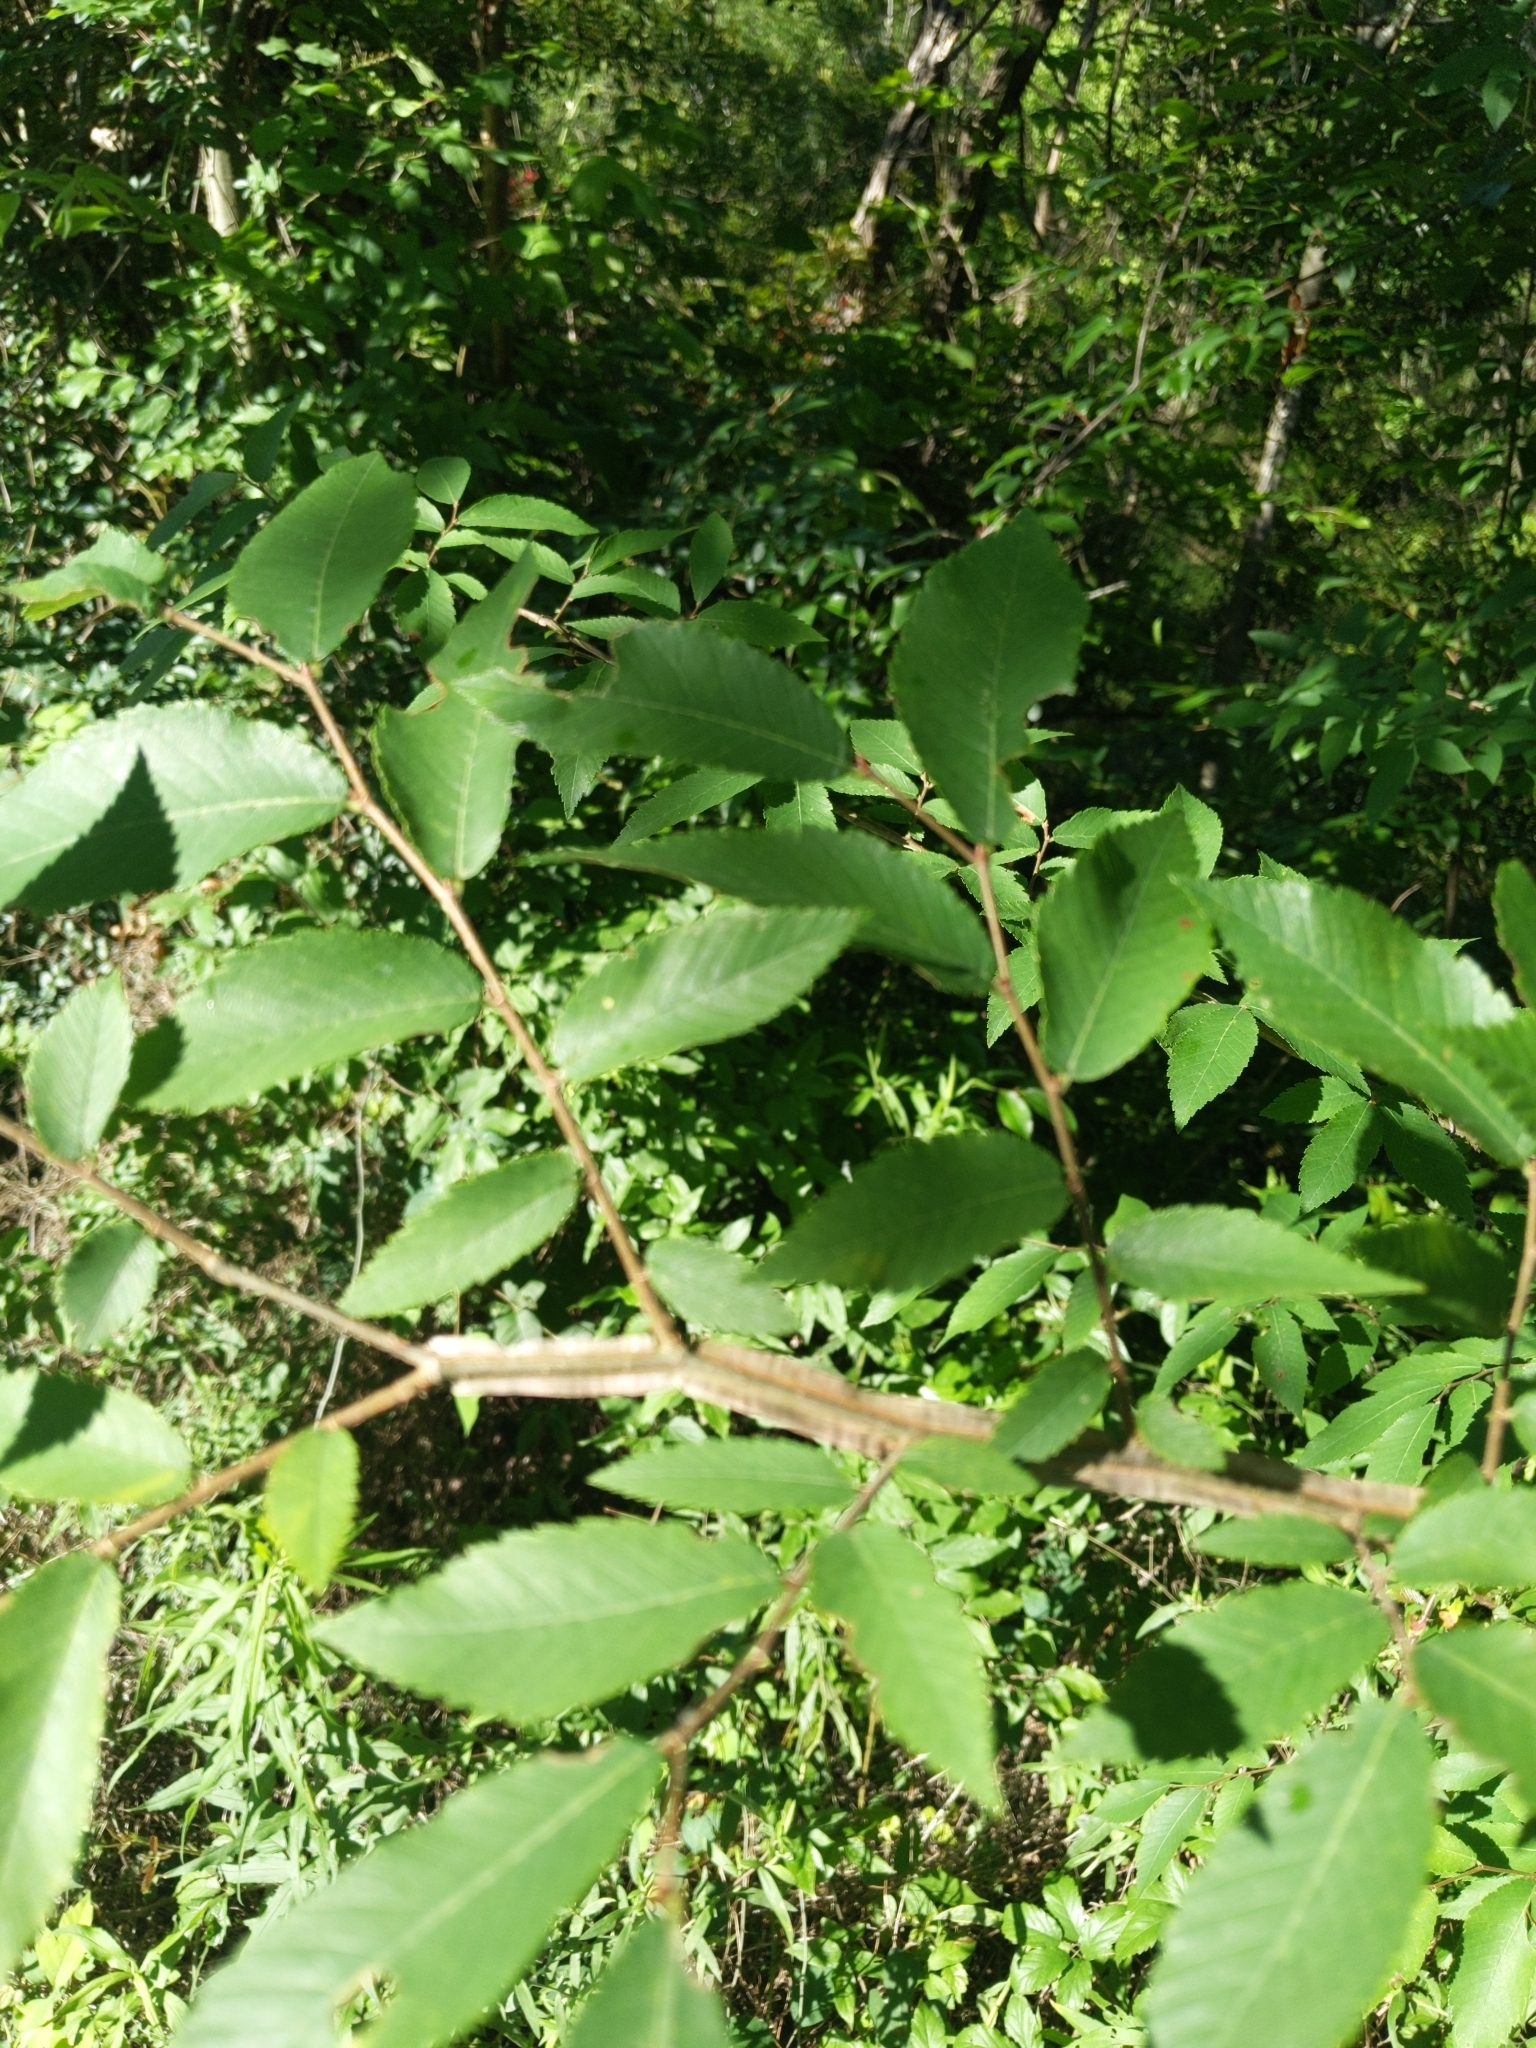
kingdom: Plantae
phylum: Tracheophyta
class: Magnoliopsida
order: Rosales
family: Ulmaceae
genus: Ulmus
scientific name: Ulmus alata
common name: Winged elm
